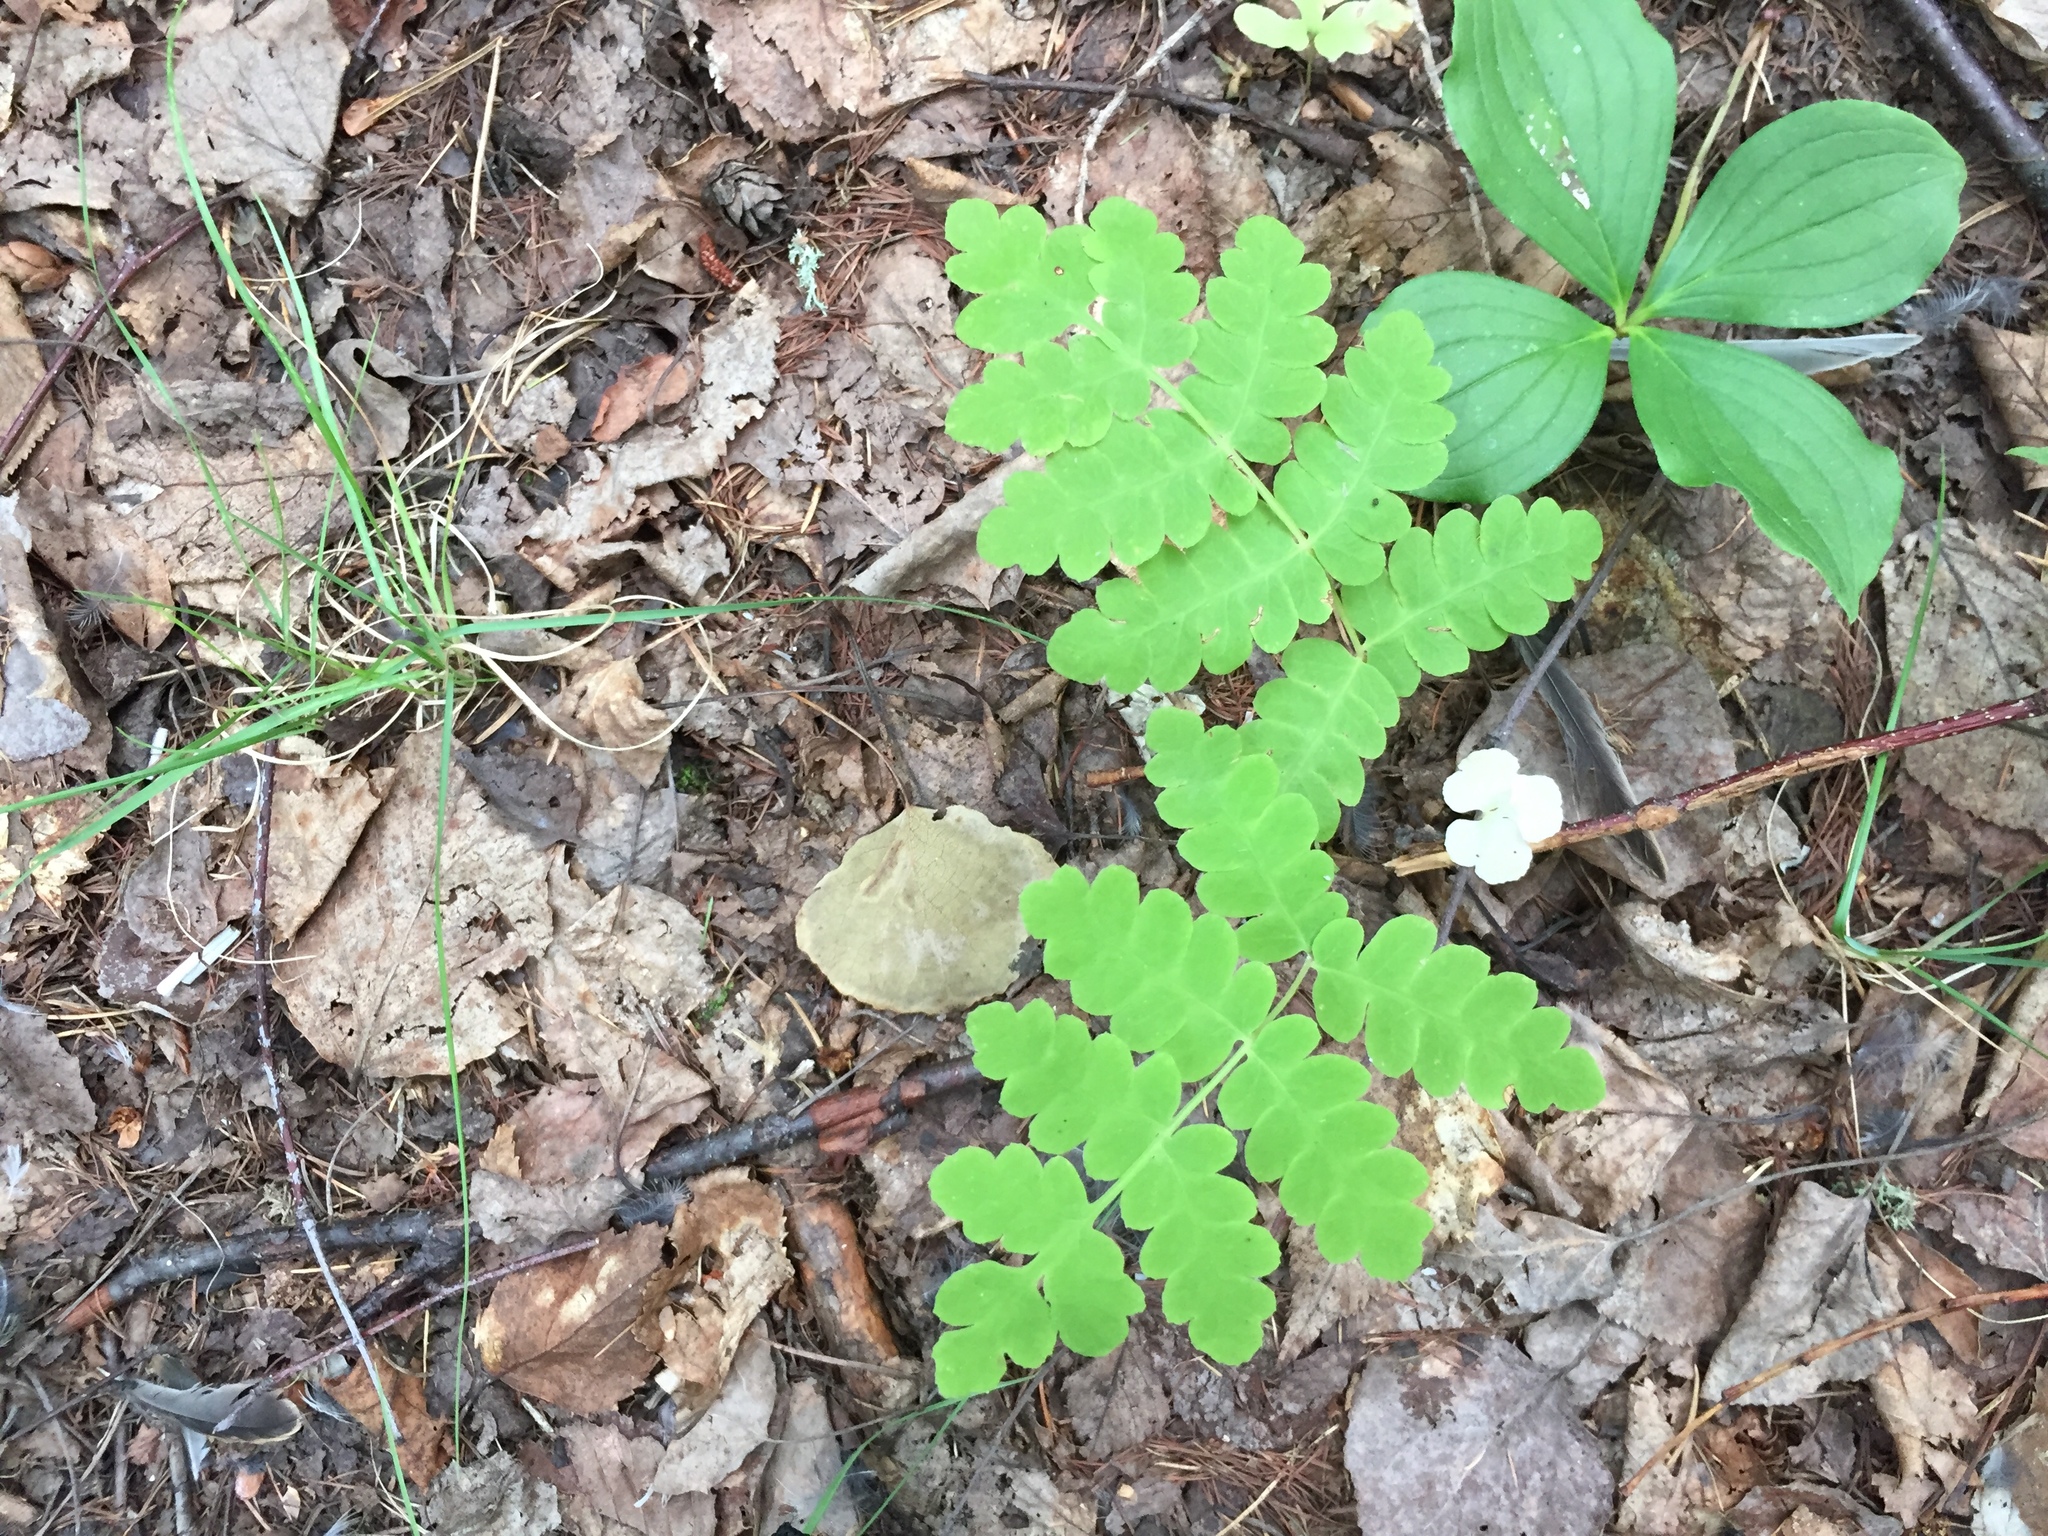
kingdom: Plantae
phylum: Tracheophyta
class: Polypodiopsida
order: Osmundales
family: Osmundaceae
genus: Claytosmunda
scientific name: Claytosmunda claytoniana
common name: Clayton's fern
